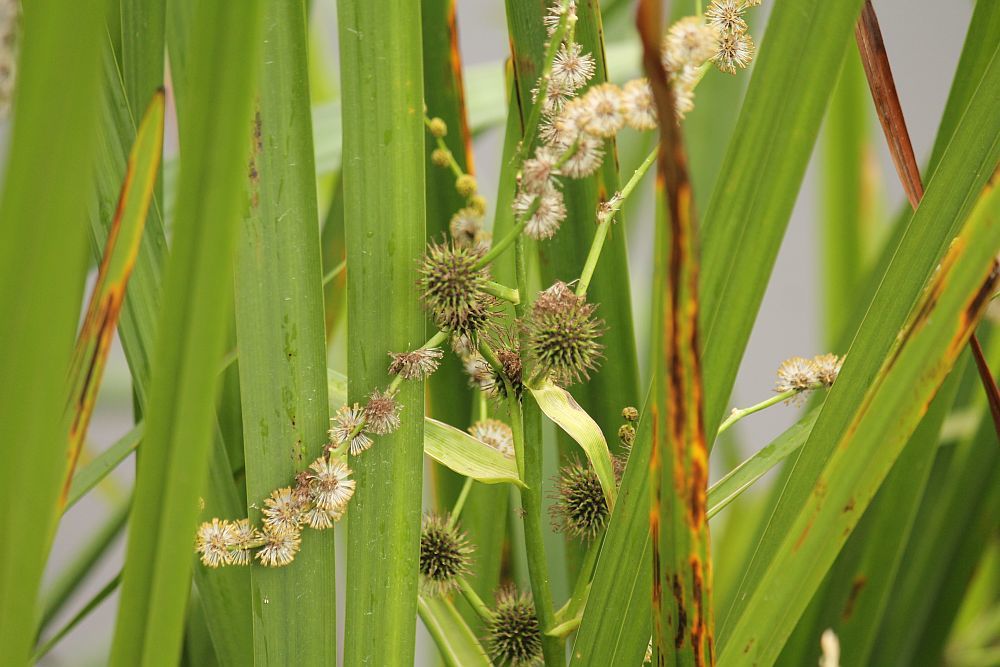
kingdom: Plantae
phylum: Tracheophyta
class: Liliopsida
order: Poales
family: Typhaceae
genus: Sparganium
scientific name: Sparganium erectum
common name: Branched bur-reed
